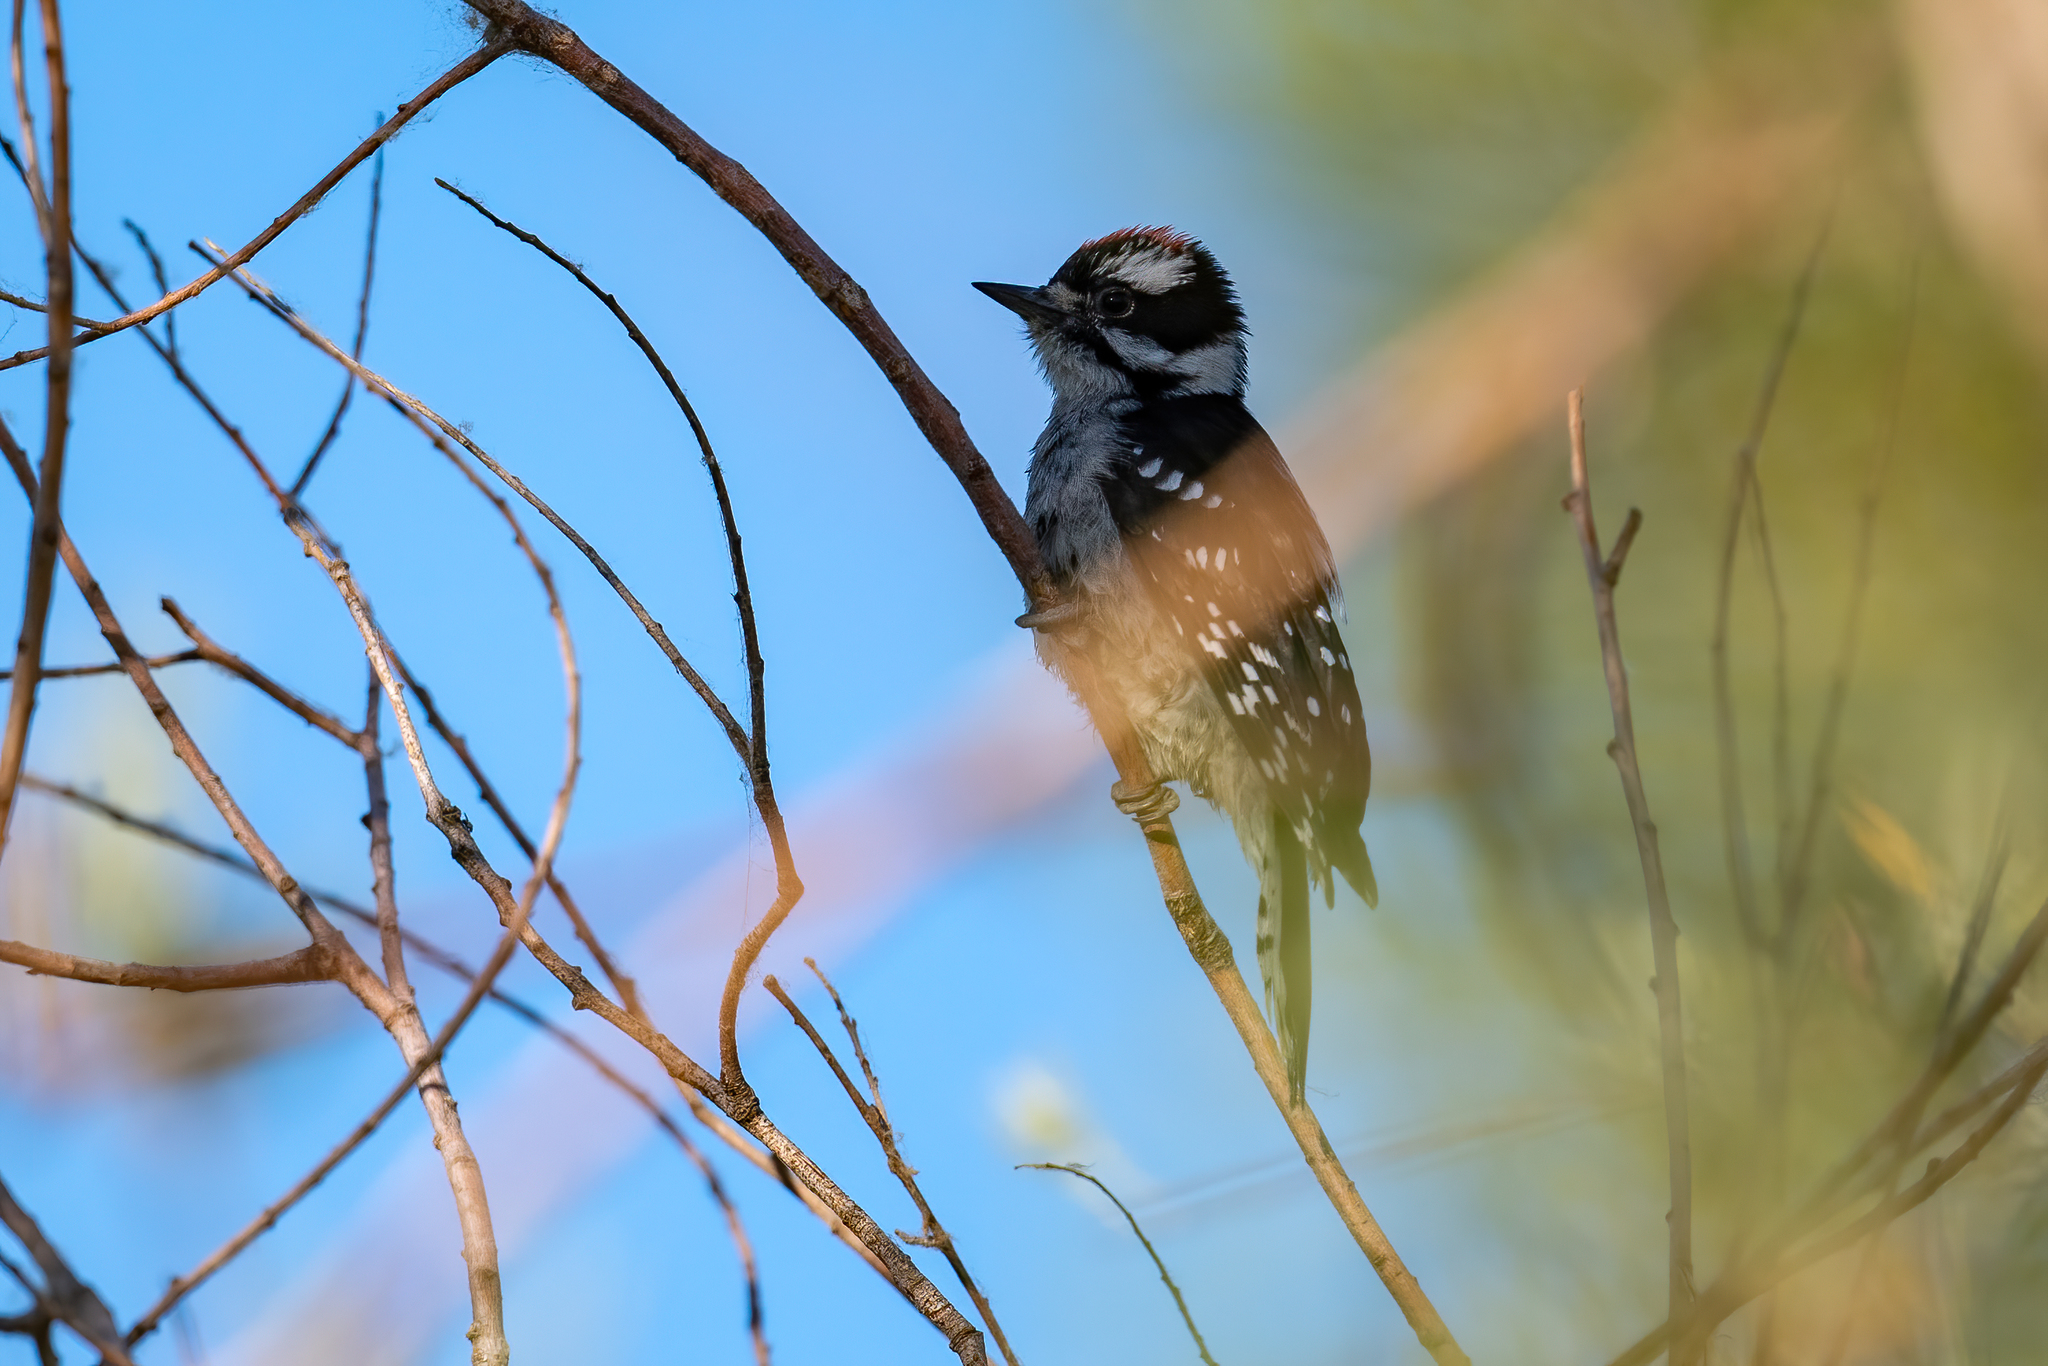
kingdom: Animalia
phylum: Chordata
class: Aves
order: Piciformes
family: Picidae
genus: Dryobates
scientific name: Dryobates pubescens
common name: Downy woodpecker
